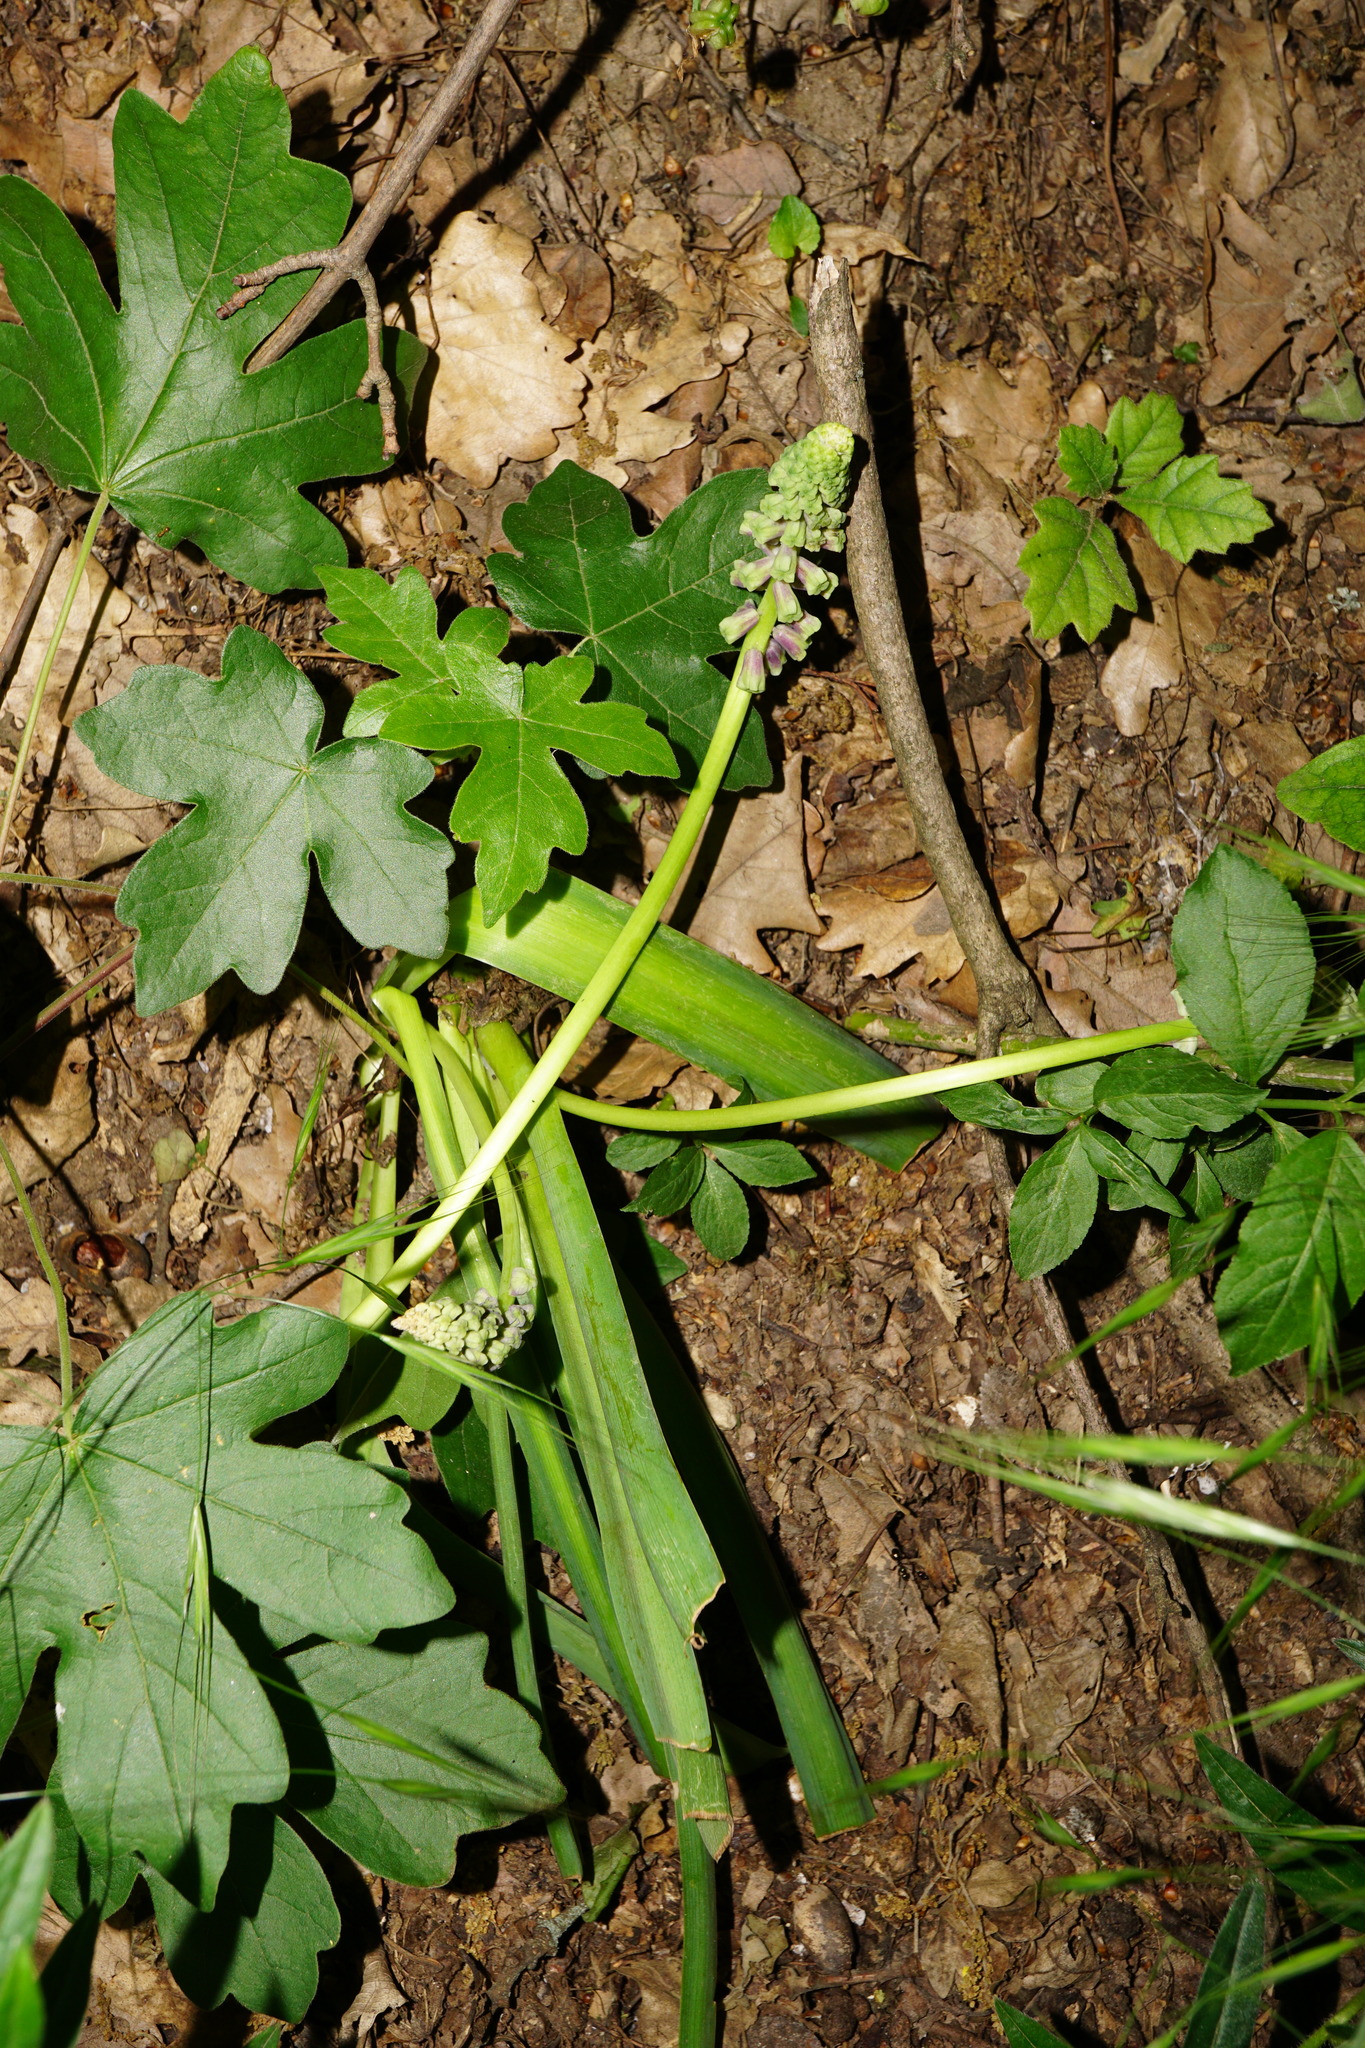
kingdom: Plantae
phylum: Tracheophyta
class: Liliopsida
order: Asparagales
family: Asparagaceae
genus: Muscari
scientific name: Muscari tenuiflorum
